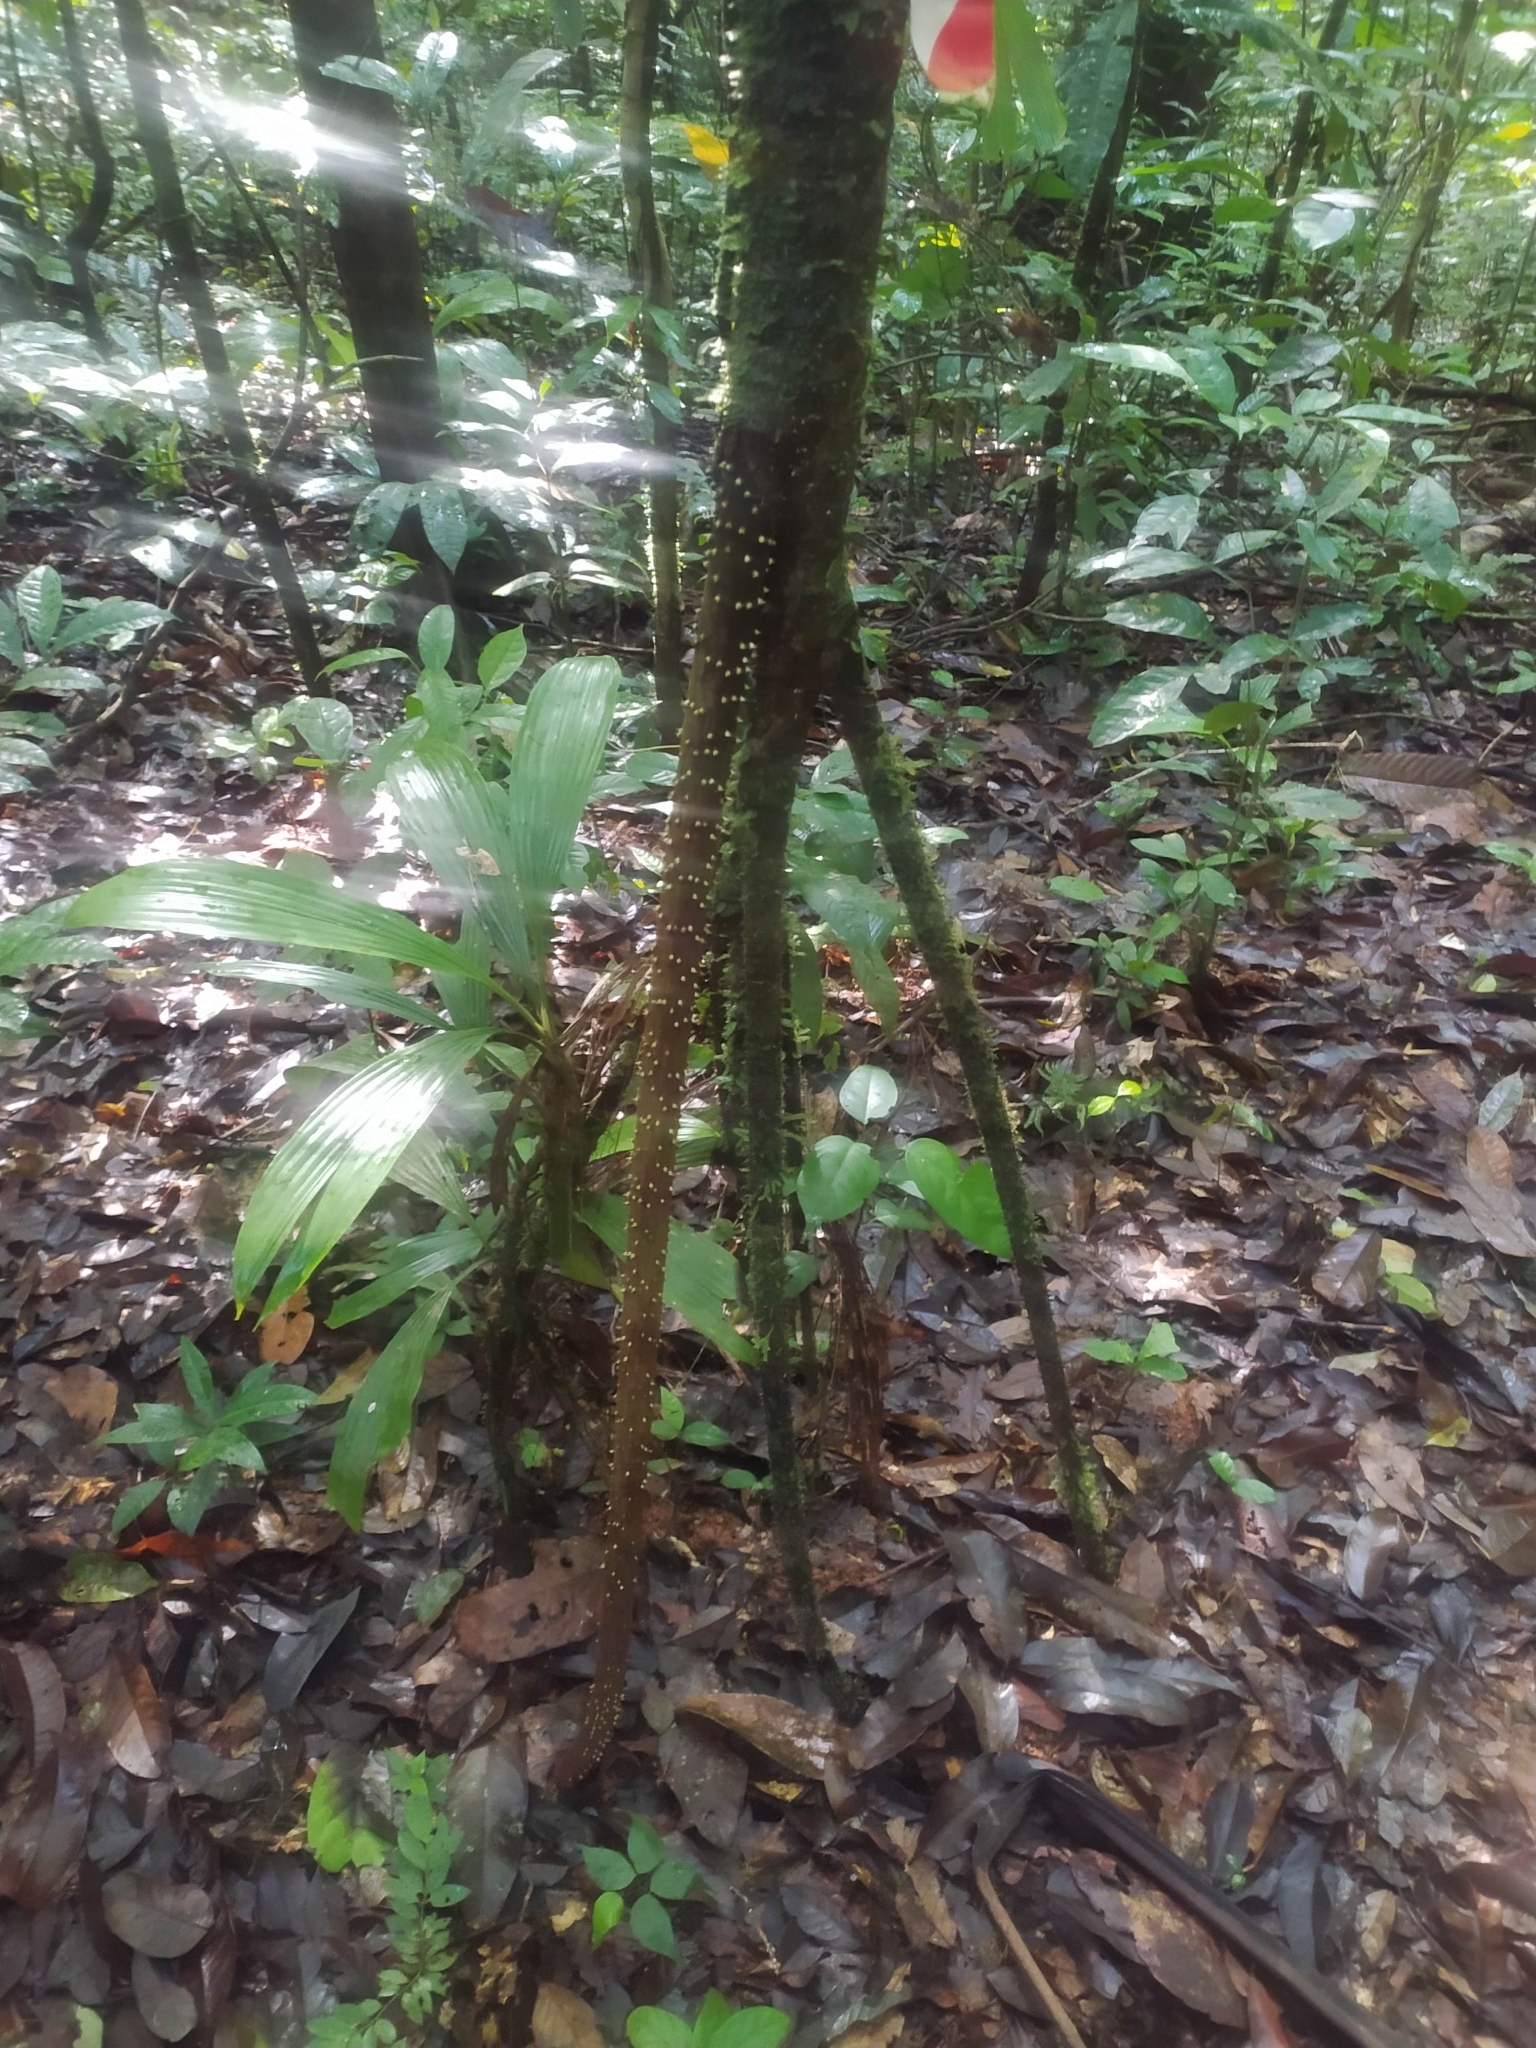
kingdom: Plantae
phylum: Tracheophyta
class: Liliopsida
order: Arecales
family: Arecaceae
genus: Socratea
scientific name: Socratea exorrhiza
